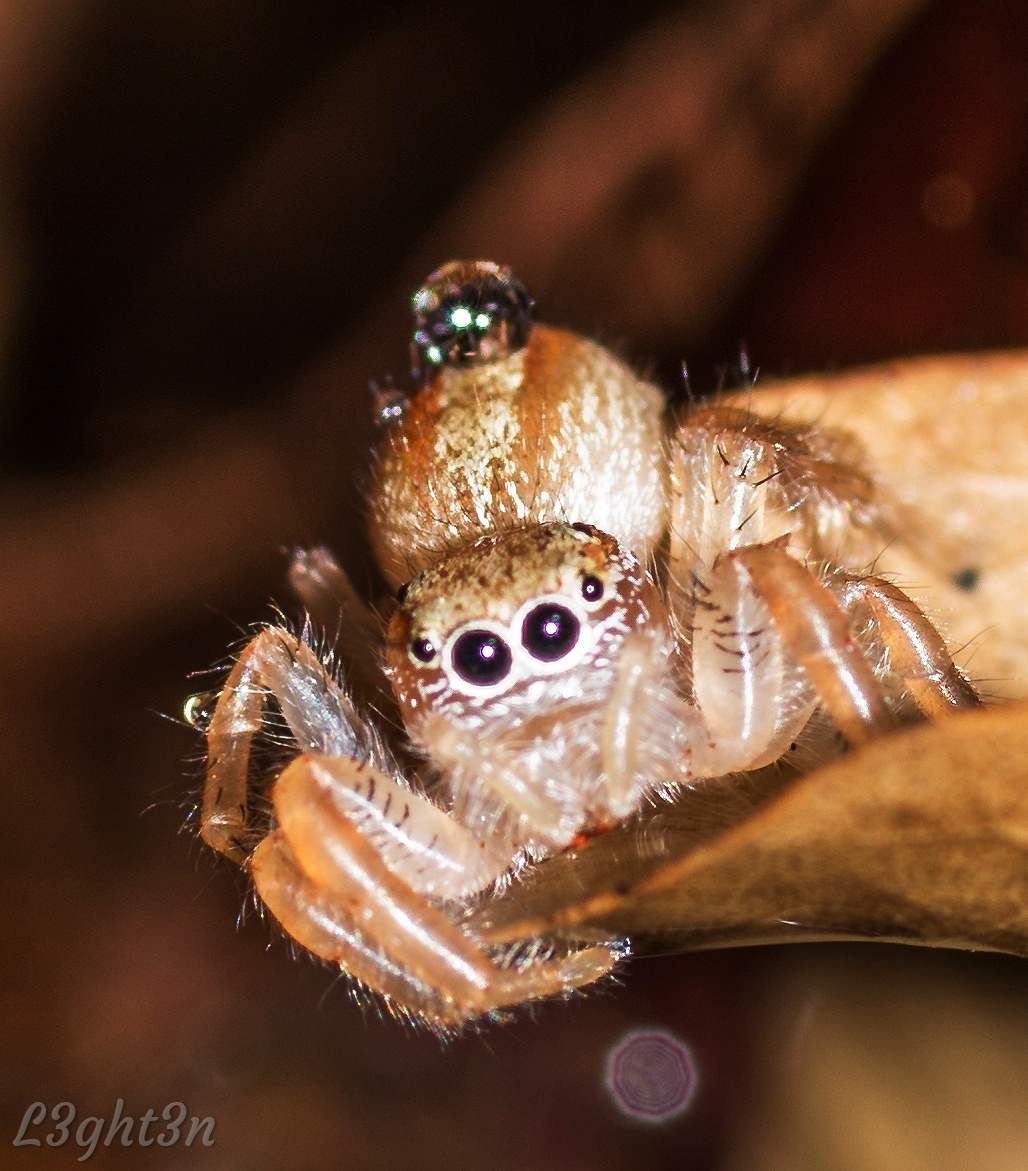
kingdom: Animalia
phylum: Arthropoda
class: Arachnida
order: Araneae
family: Salticidae
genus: Thyene
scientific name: Thyene ogdeni
